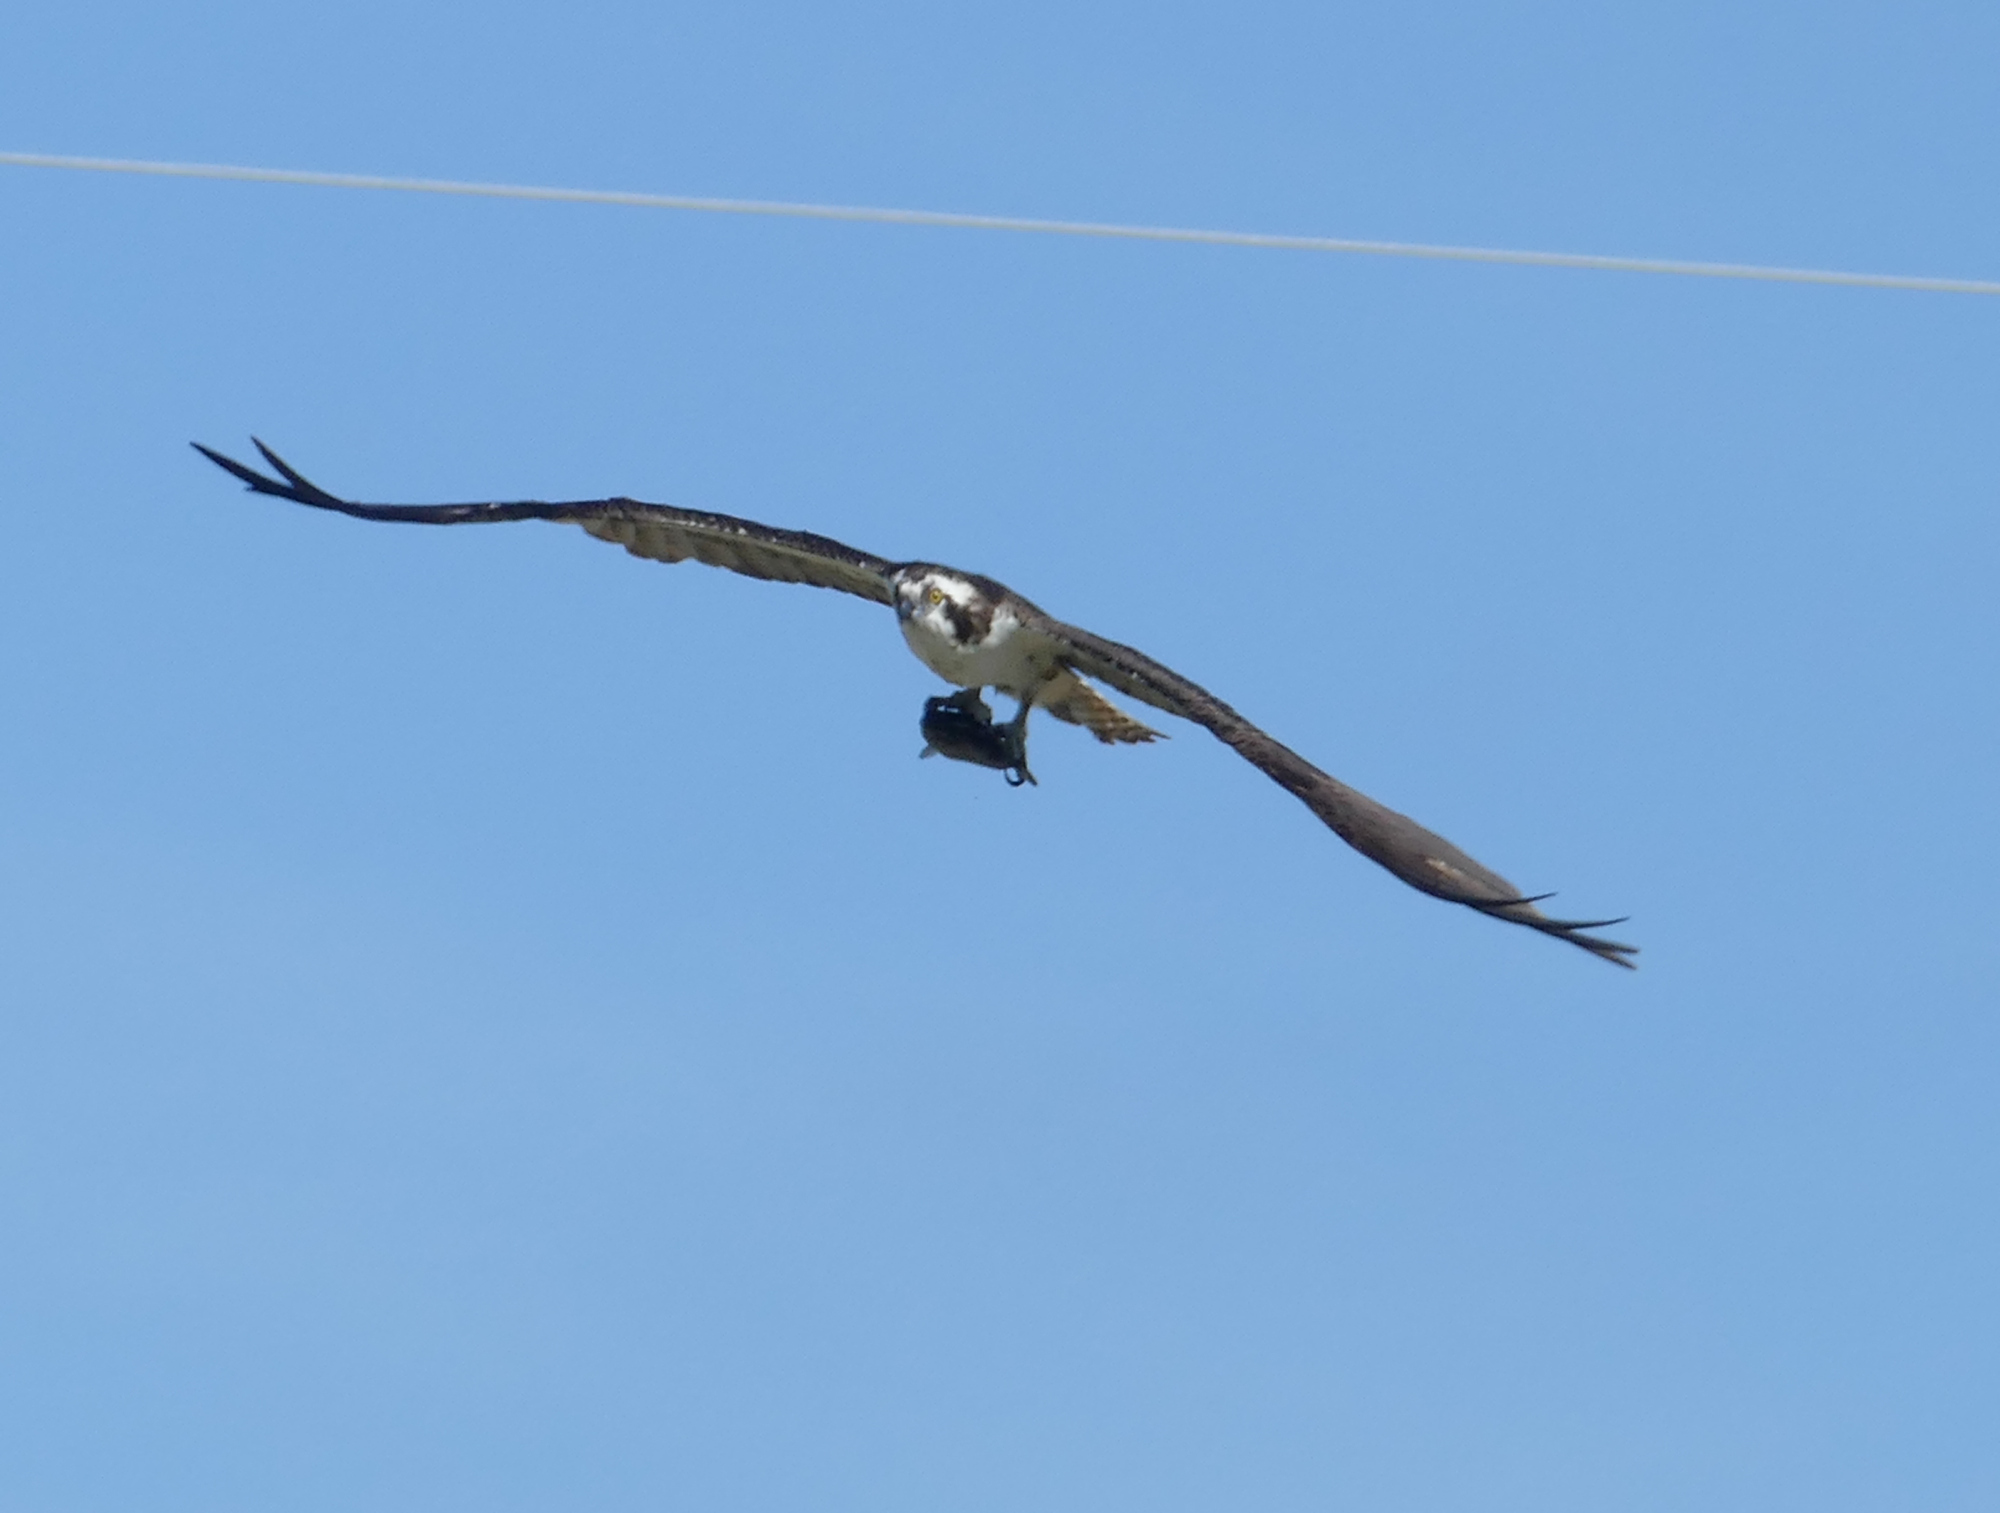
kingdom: Animalia
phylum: Chordata
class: Aves
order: Accipitriformes
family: Pandionidae
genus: Pandion
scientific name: Pandion haliaetus
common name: Osprey
